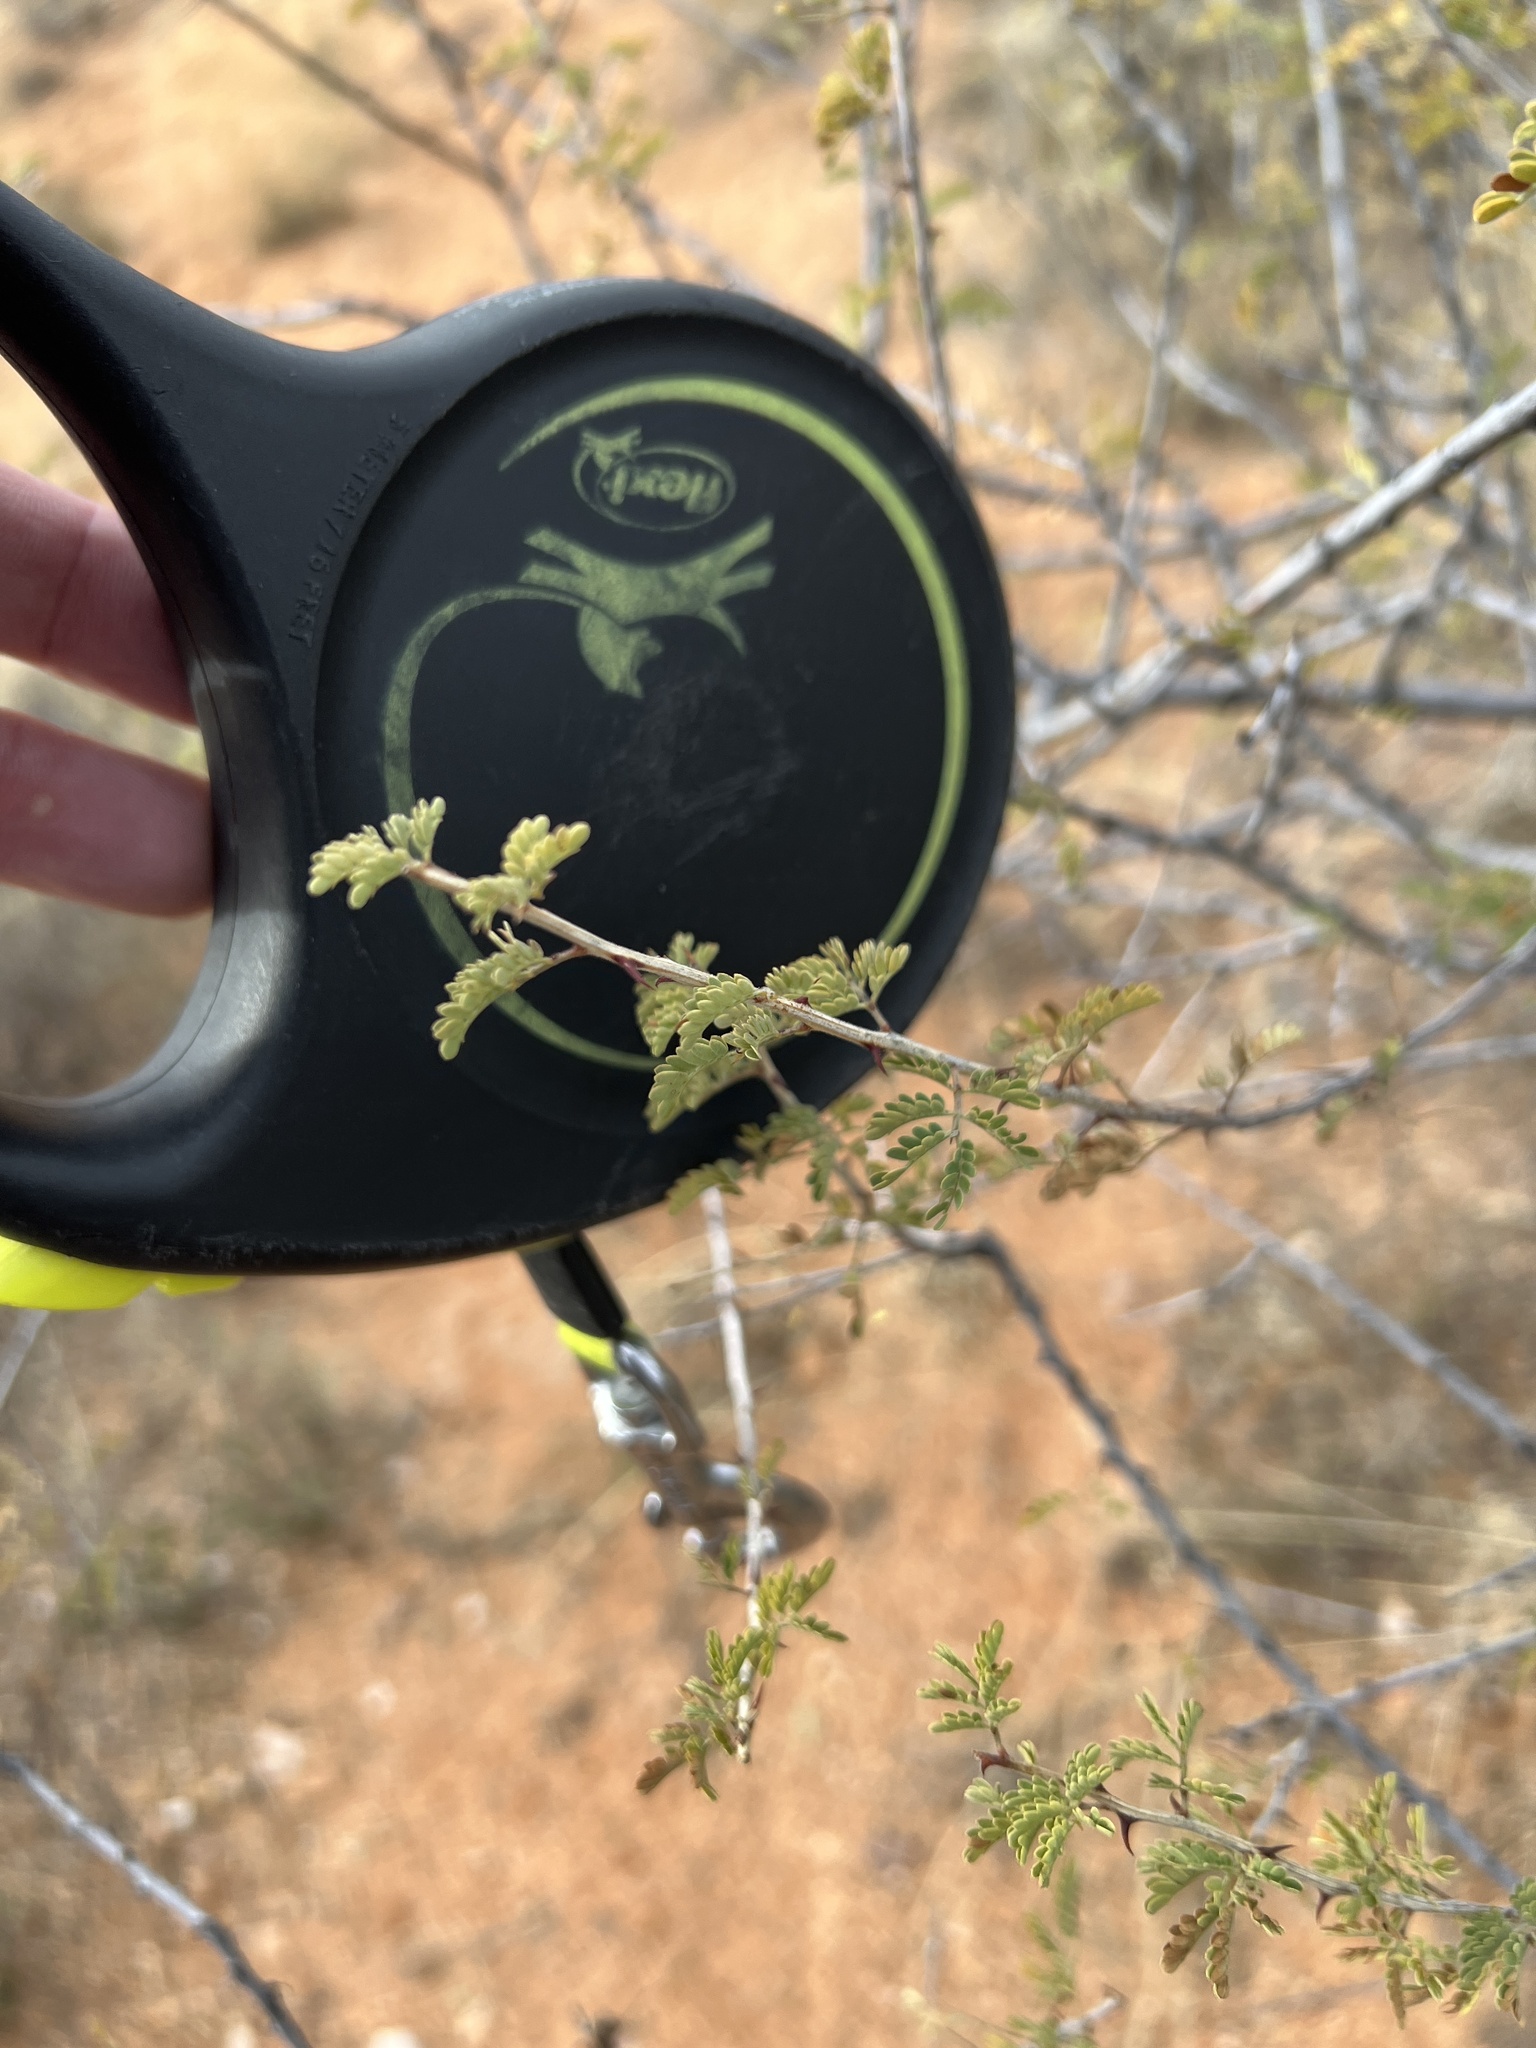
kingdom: Plantae
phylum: Tracheophyta
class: Magnoliopsida
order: Fabales
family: Fabaceae
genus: Mimosa
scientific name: Mimosa aculeaticarpa
